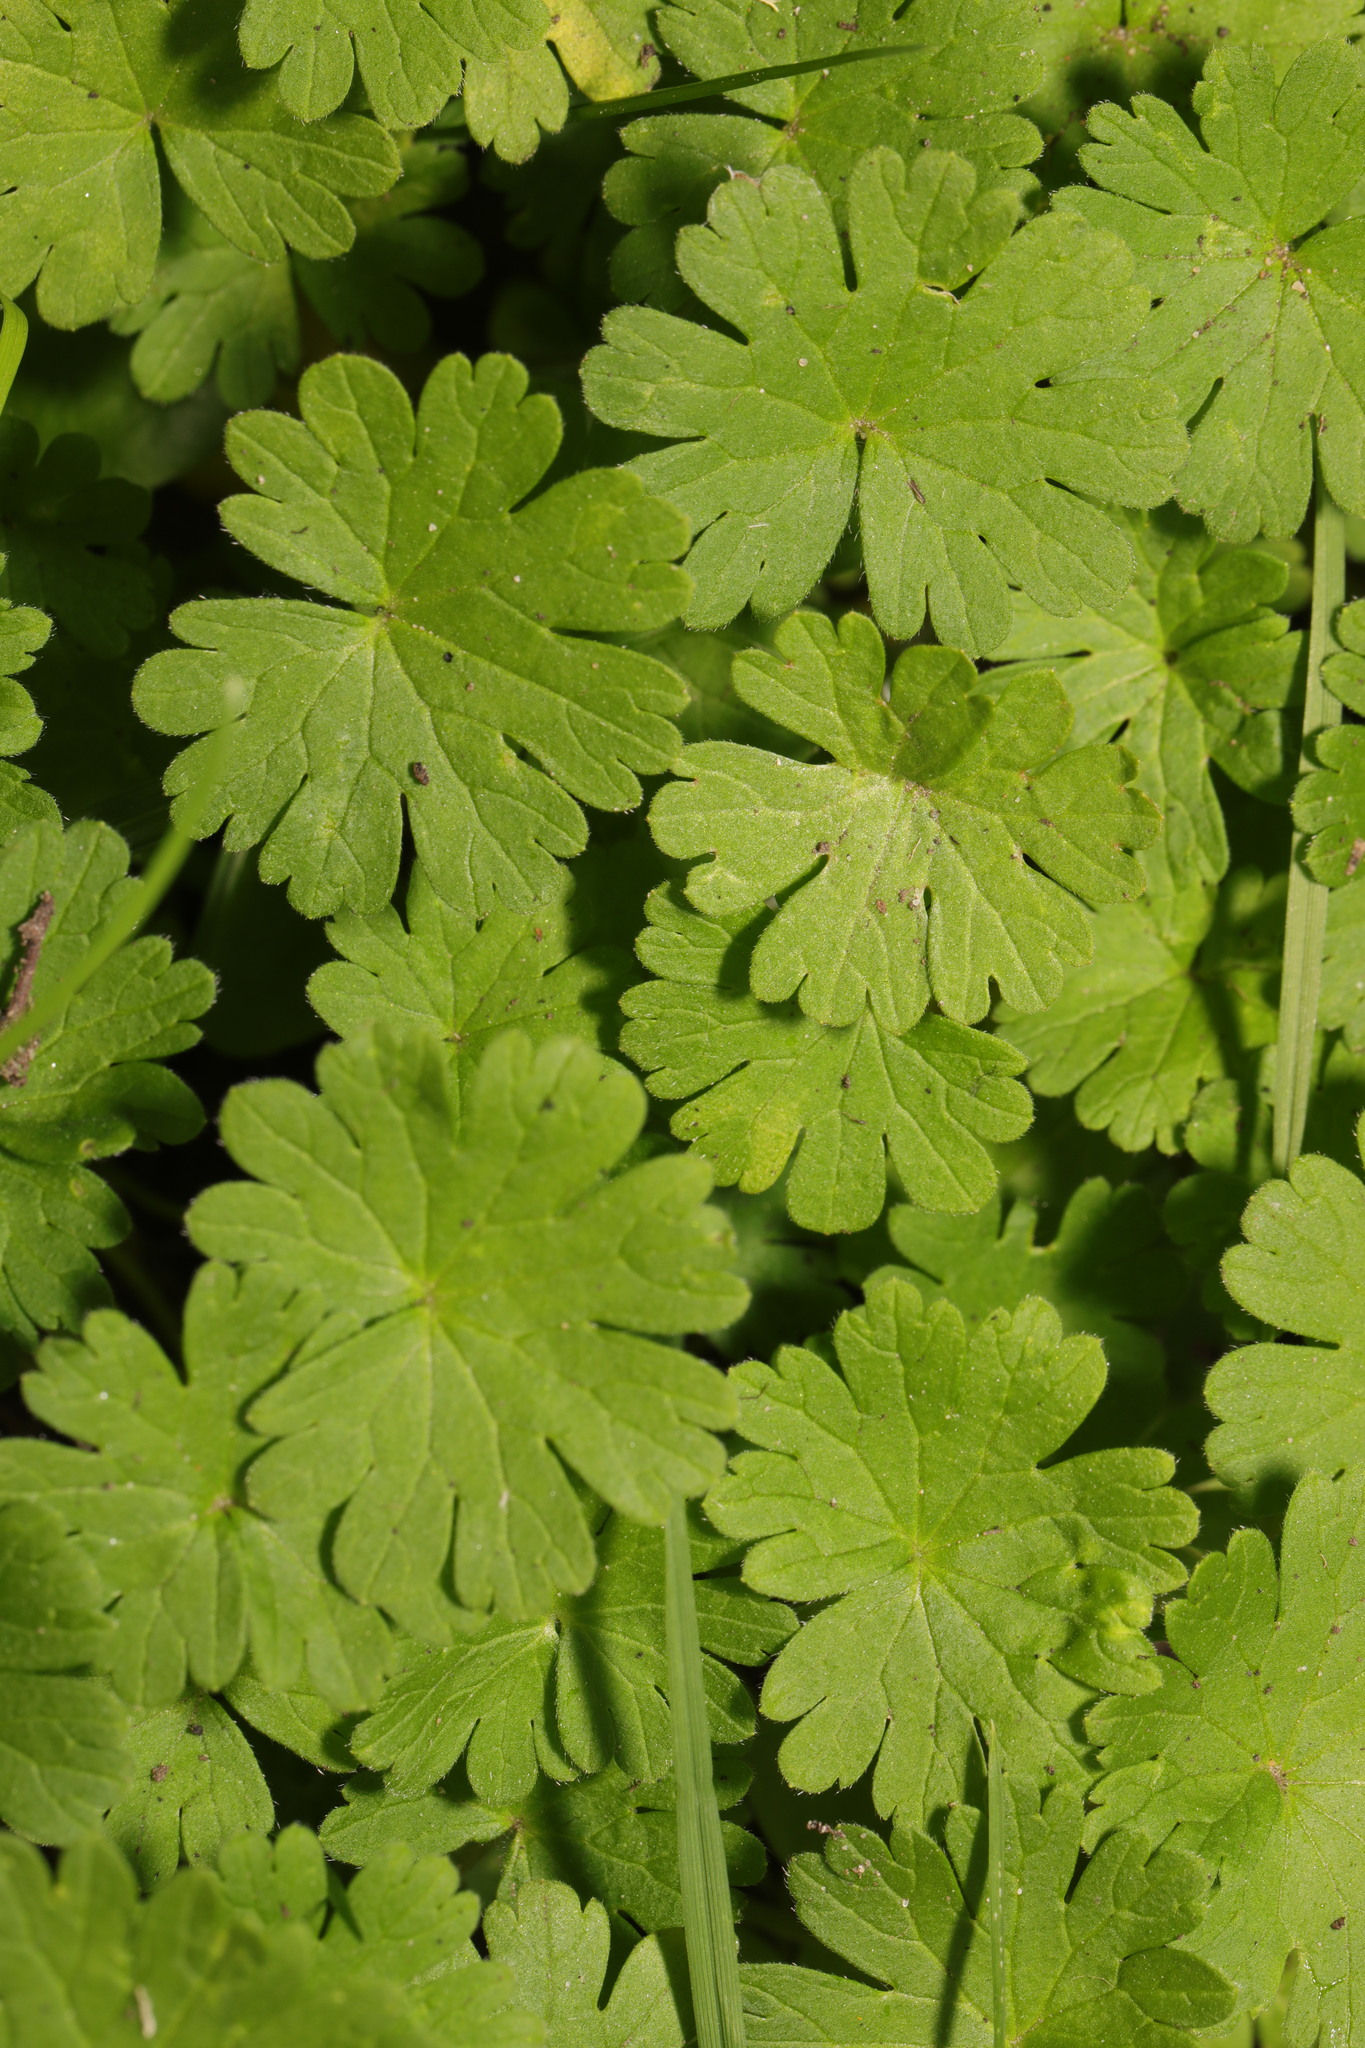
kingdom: Plantae
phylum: Tracheophyta
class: Magnoliopsida
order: Geraniales
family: Geraniaceae
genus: Geranium
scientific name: Geranium molle
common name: Dove's-foot crane's-bill
